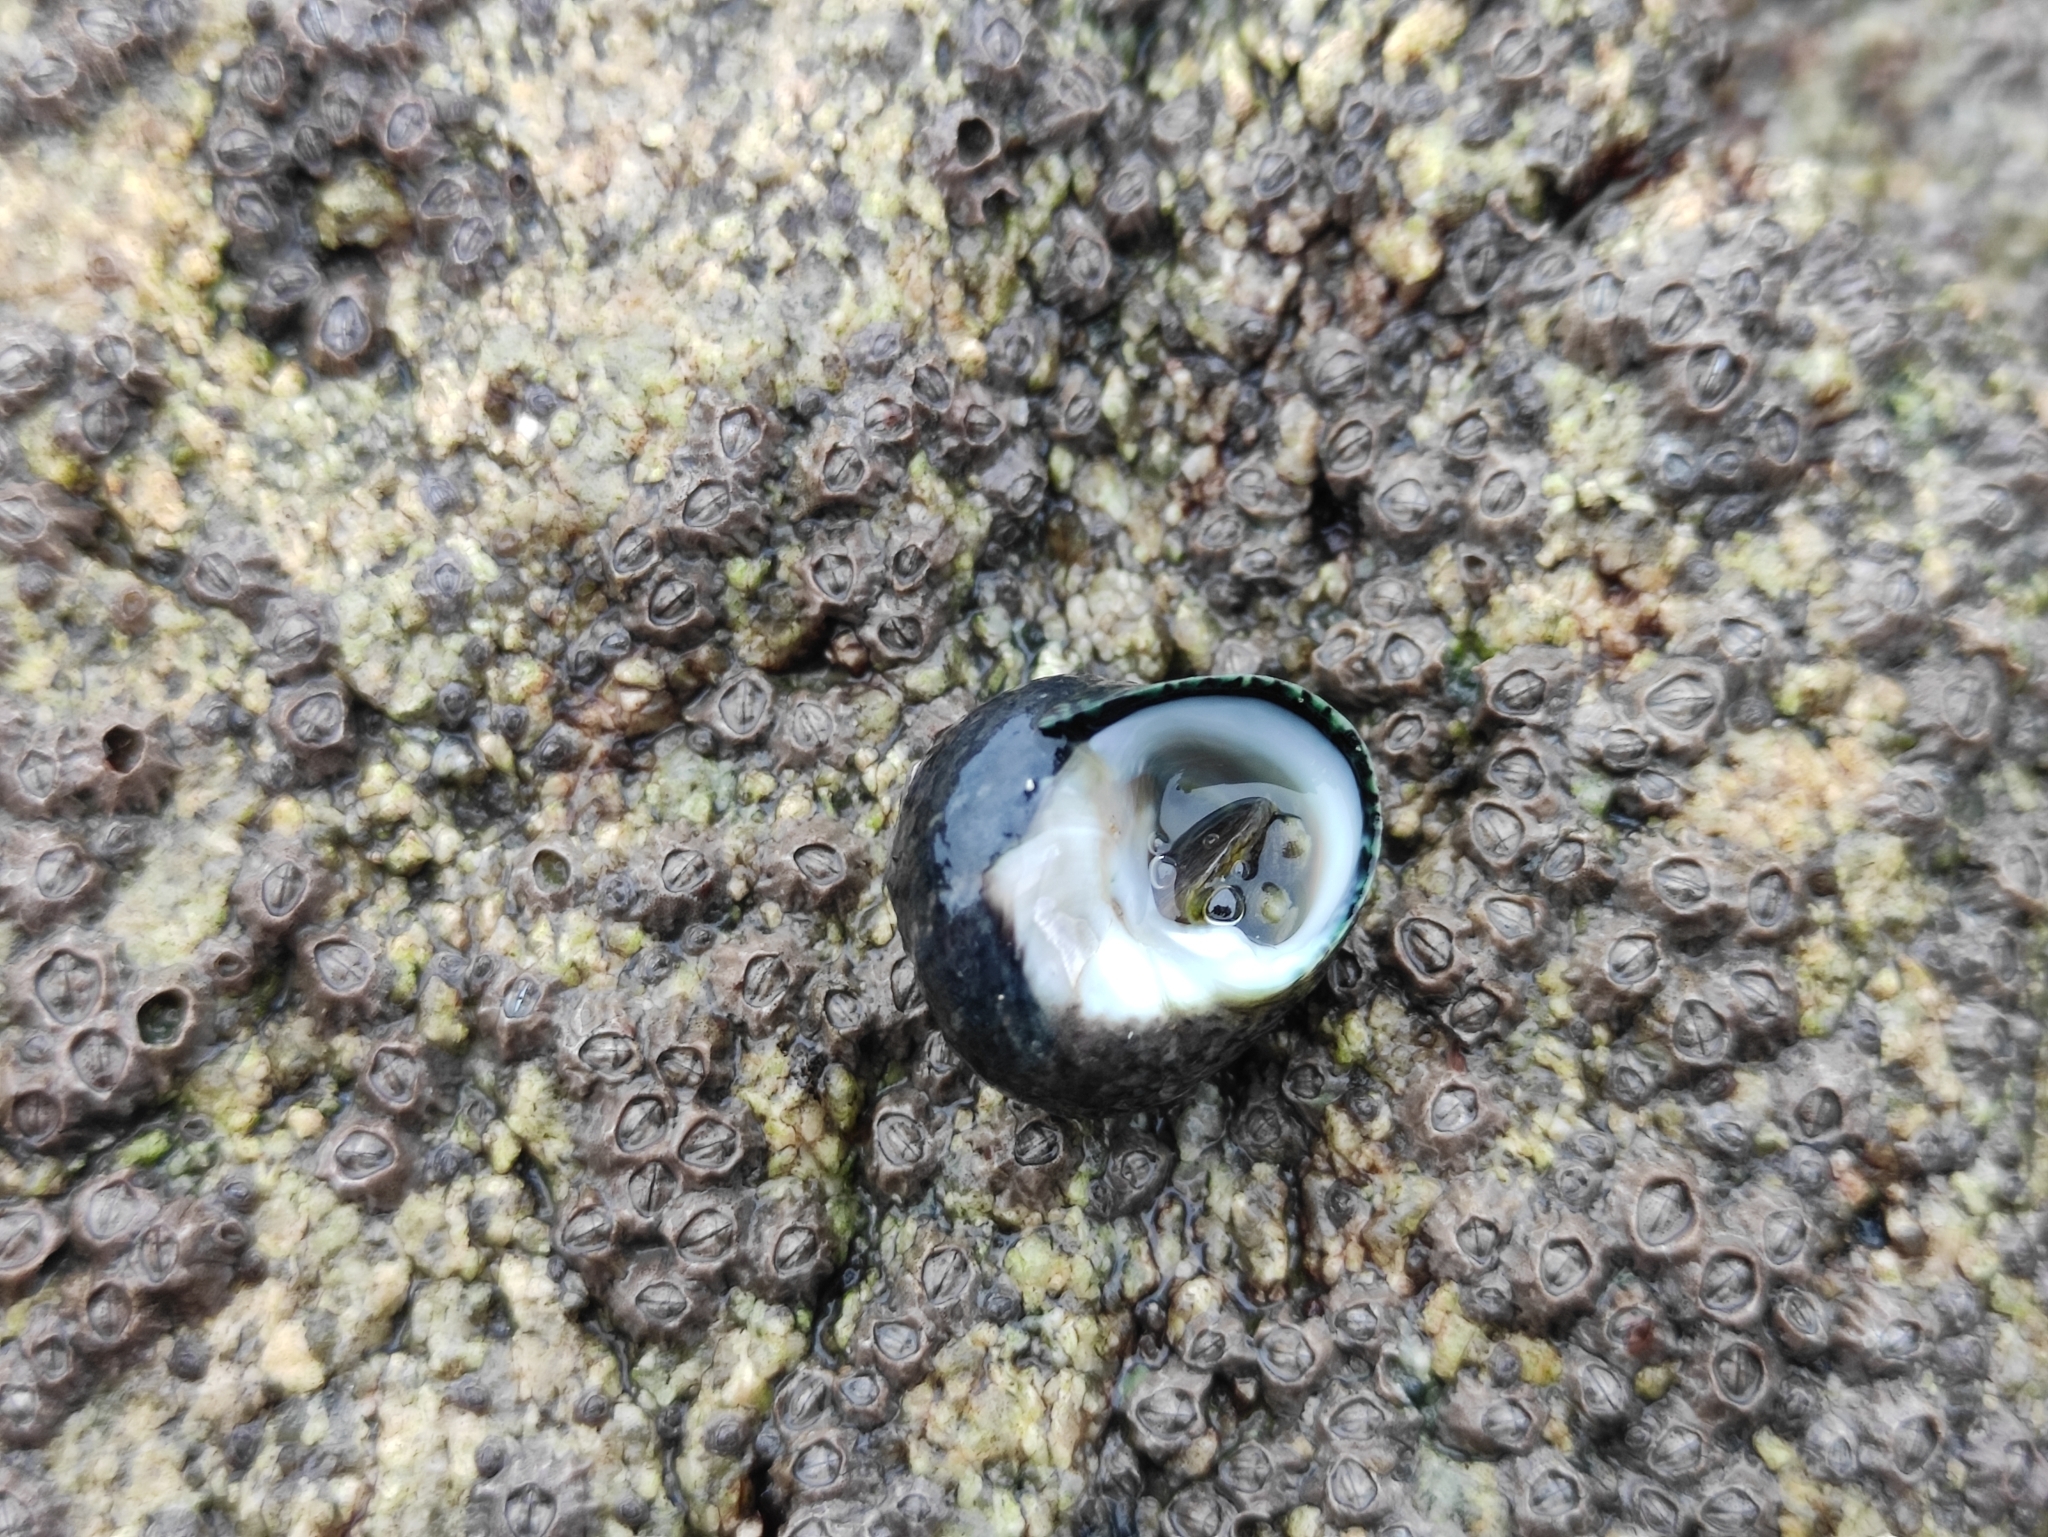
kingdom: Animalia
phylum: Mollusca
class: Gastropoda
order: Trochida
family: Trochidae
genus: Phorcus
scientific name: Phorcus lineatus
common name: Toothed top shell
